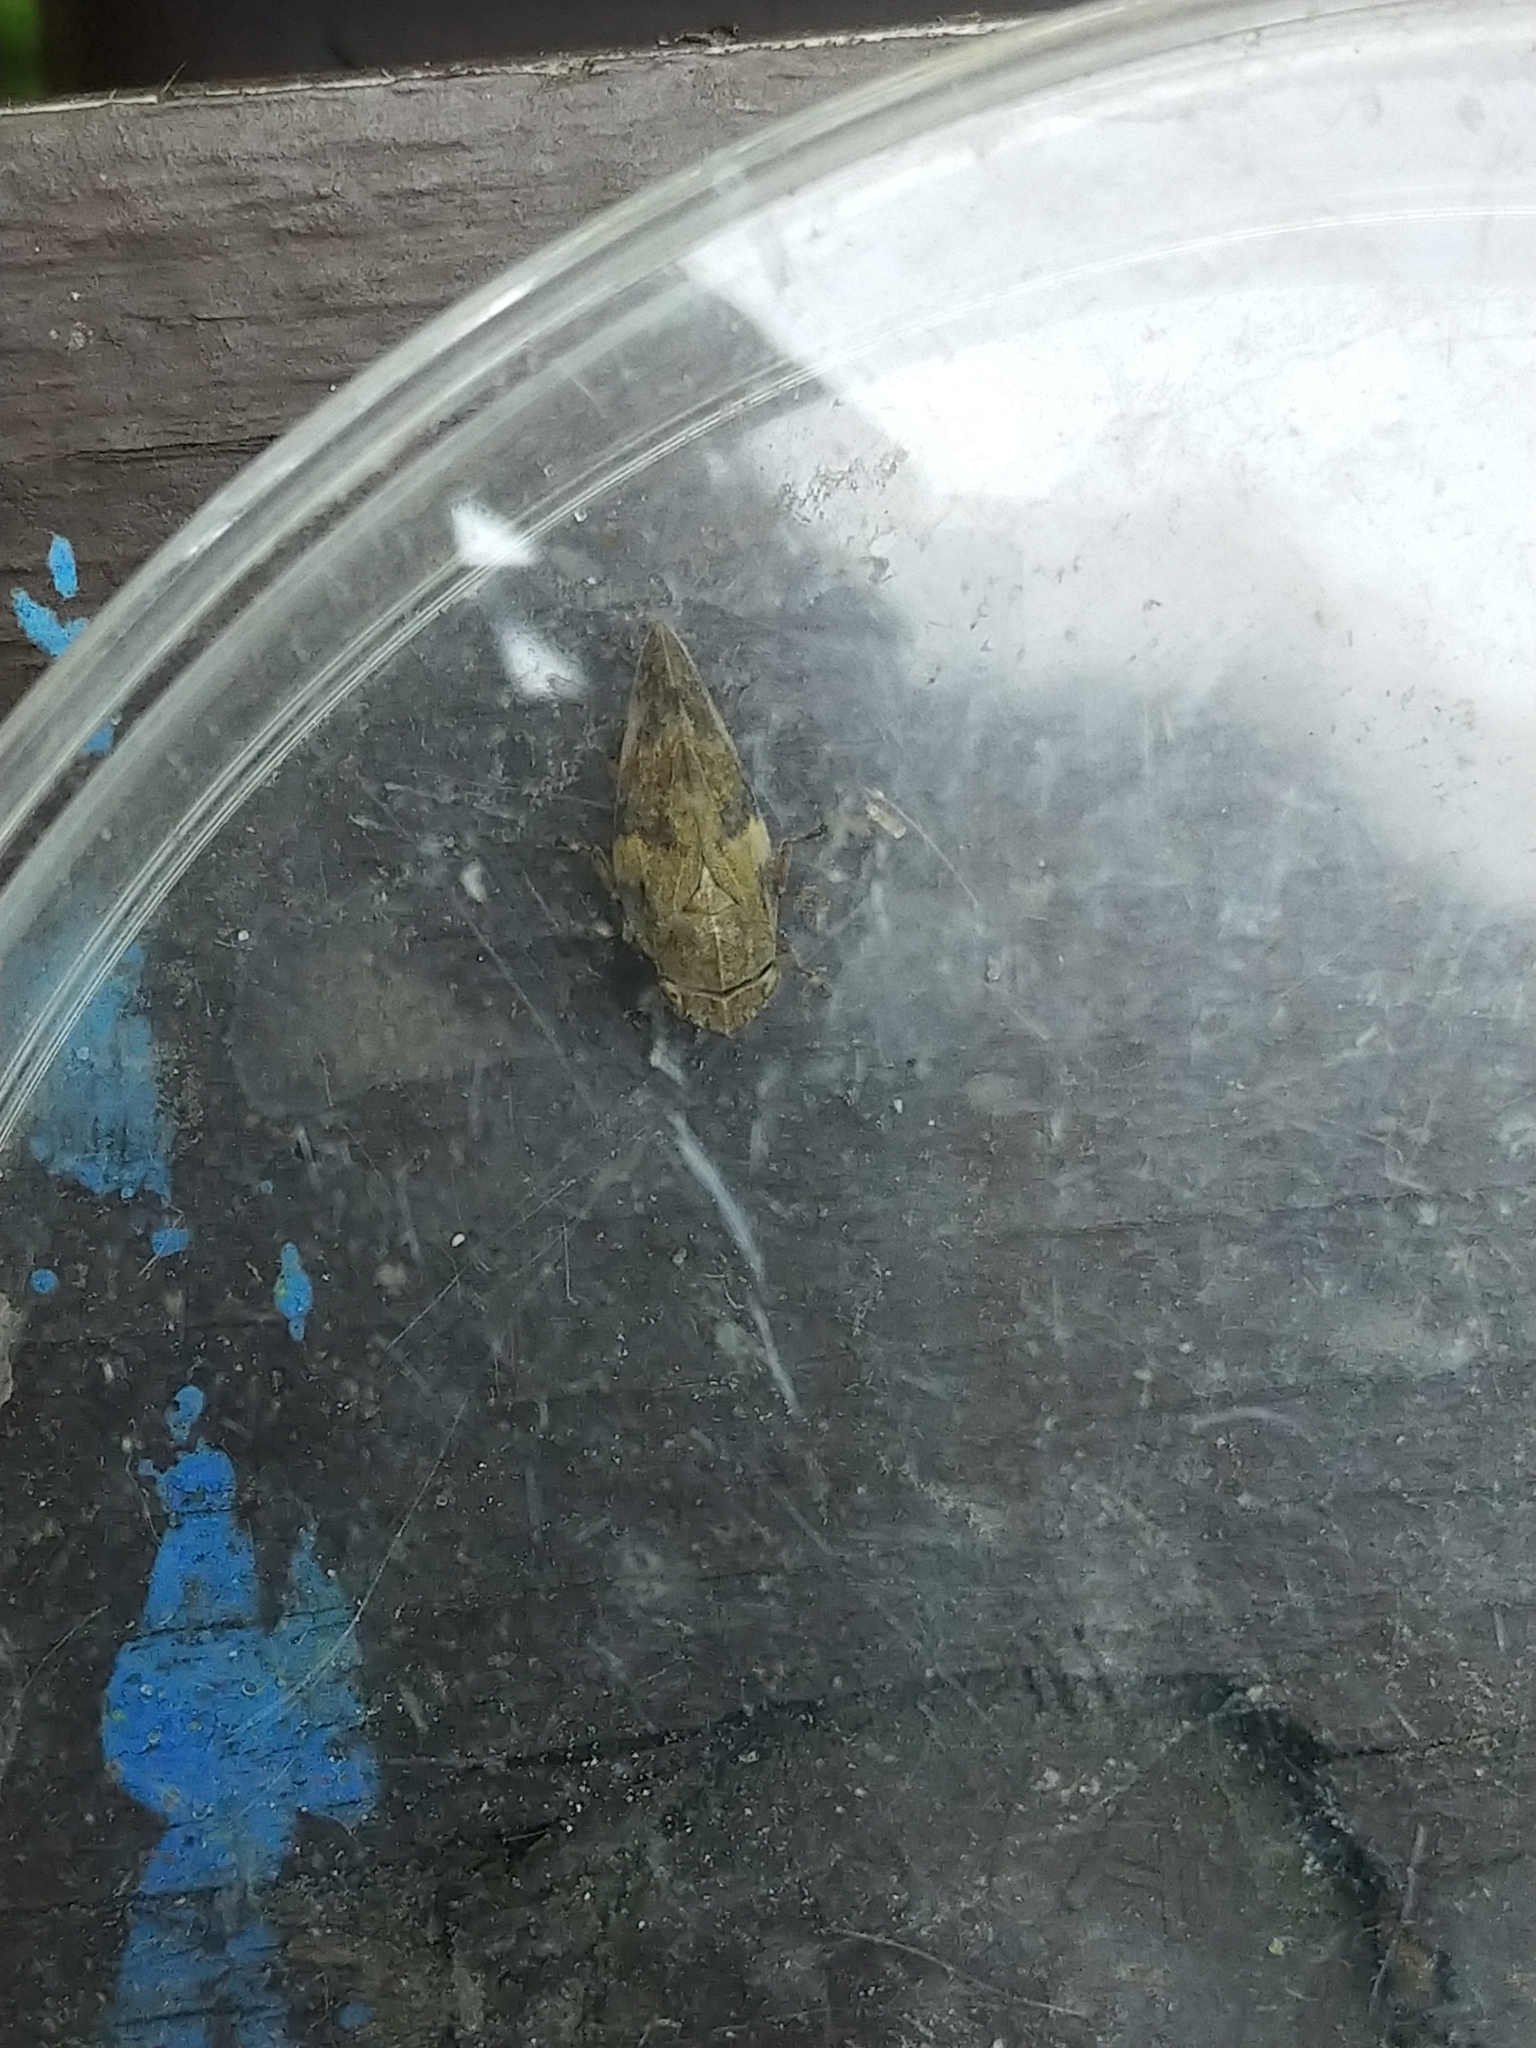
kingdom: Animalia
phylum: Arthropoda
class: Insecta
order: Hemiptera
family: Aphrophoridae
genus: Aphrophora
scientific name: Aphrophora alni
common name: European alder spittlebug
